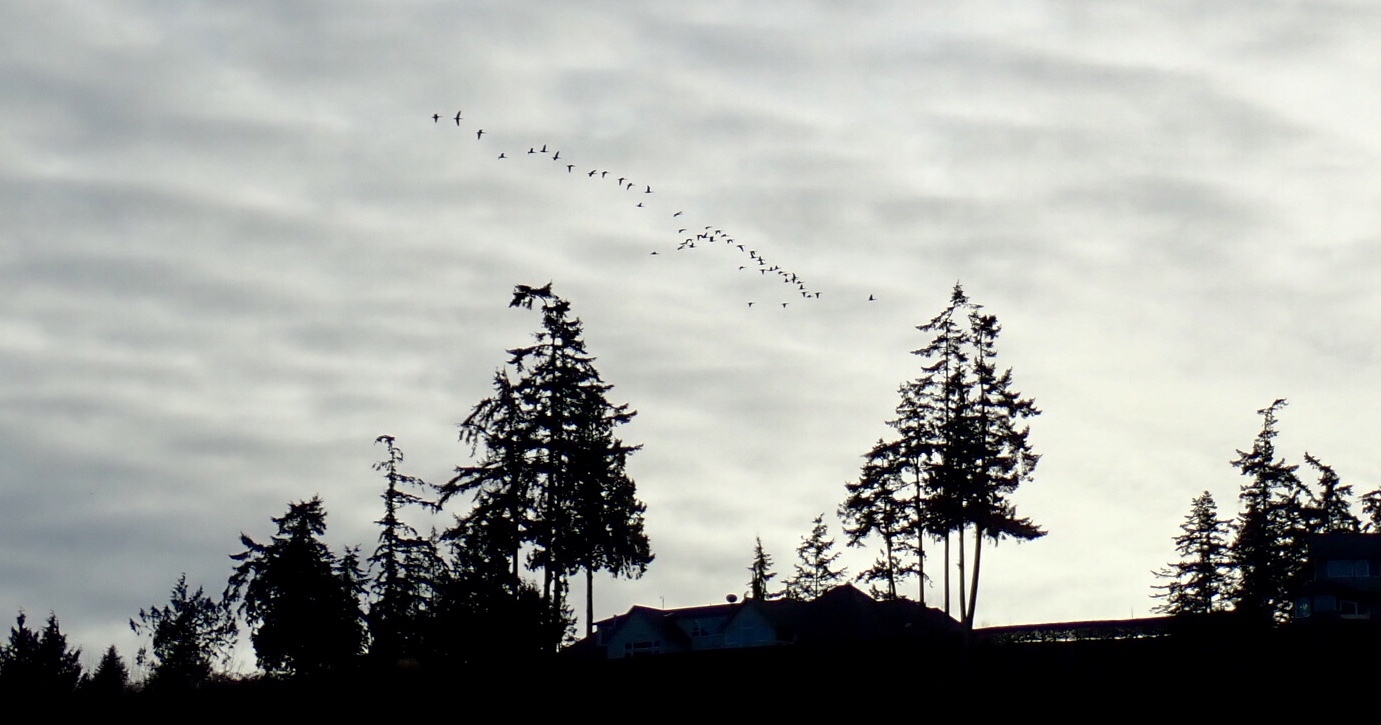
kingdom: Animalia
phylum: Chordata
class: Aves
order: Anseriformes
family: Anatidae
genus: Branta
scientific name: Branta canadensis
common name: Canada goose
